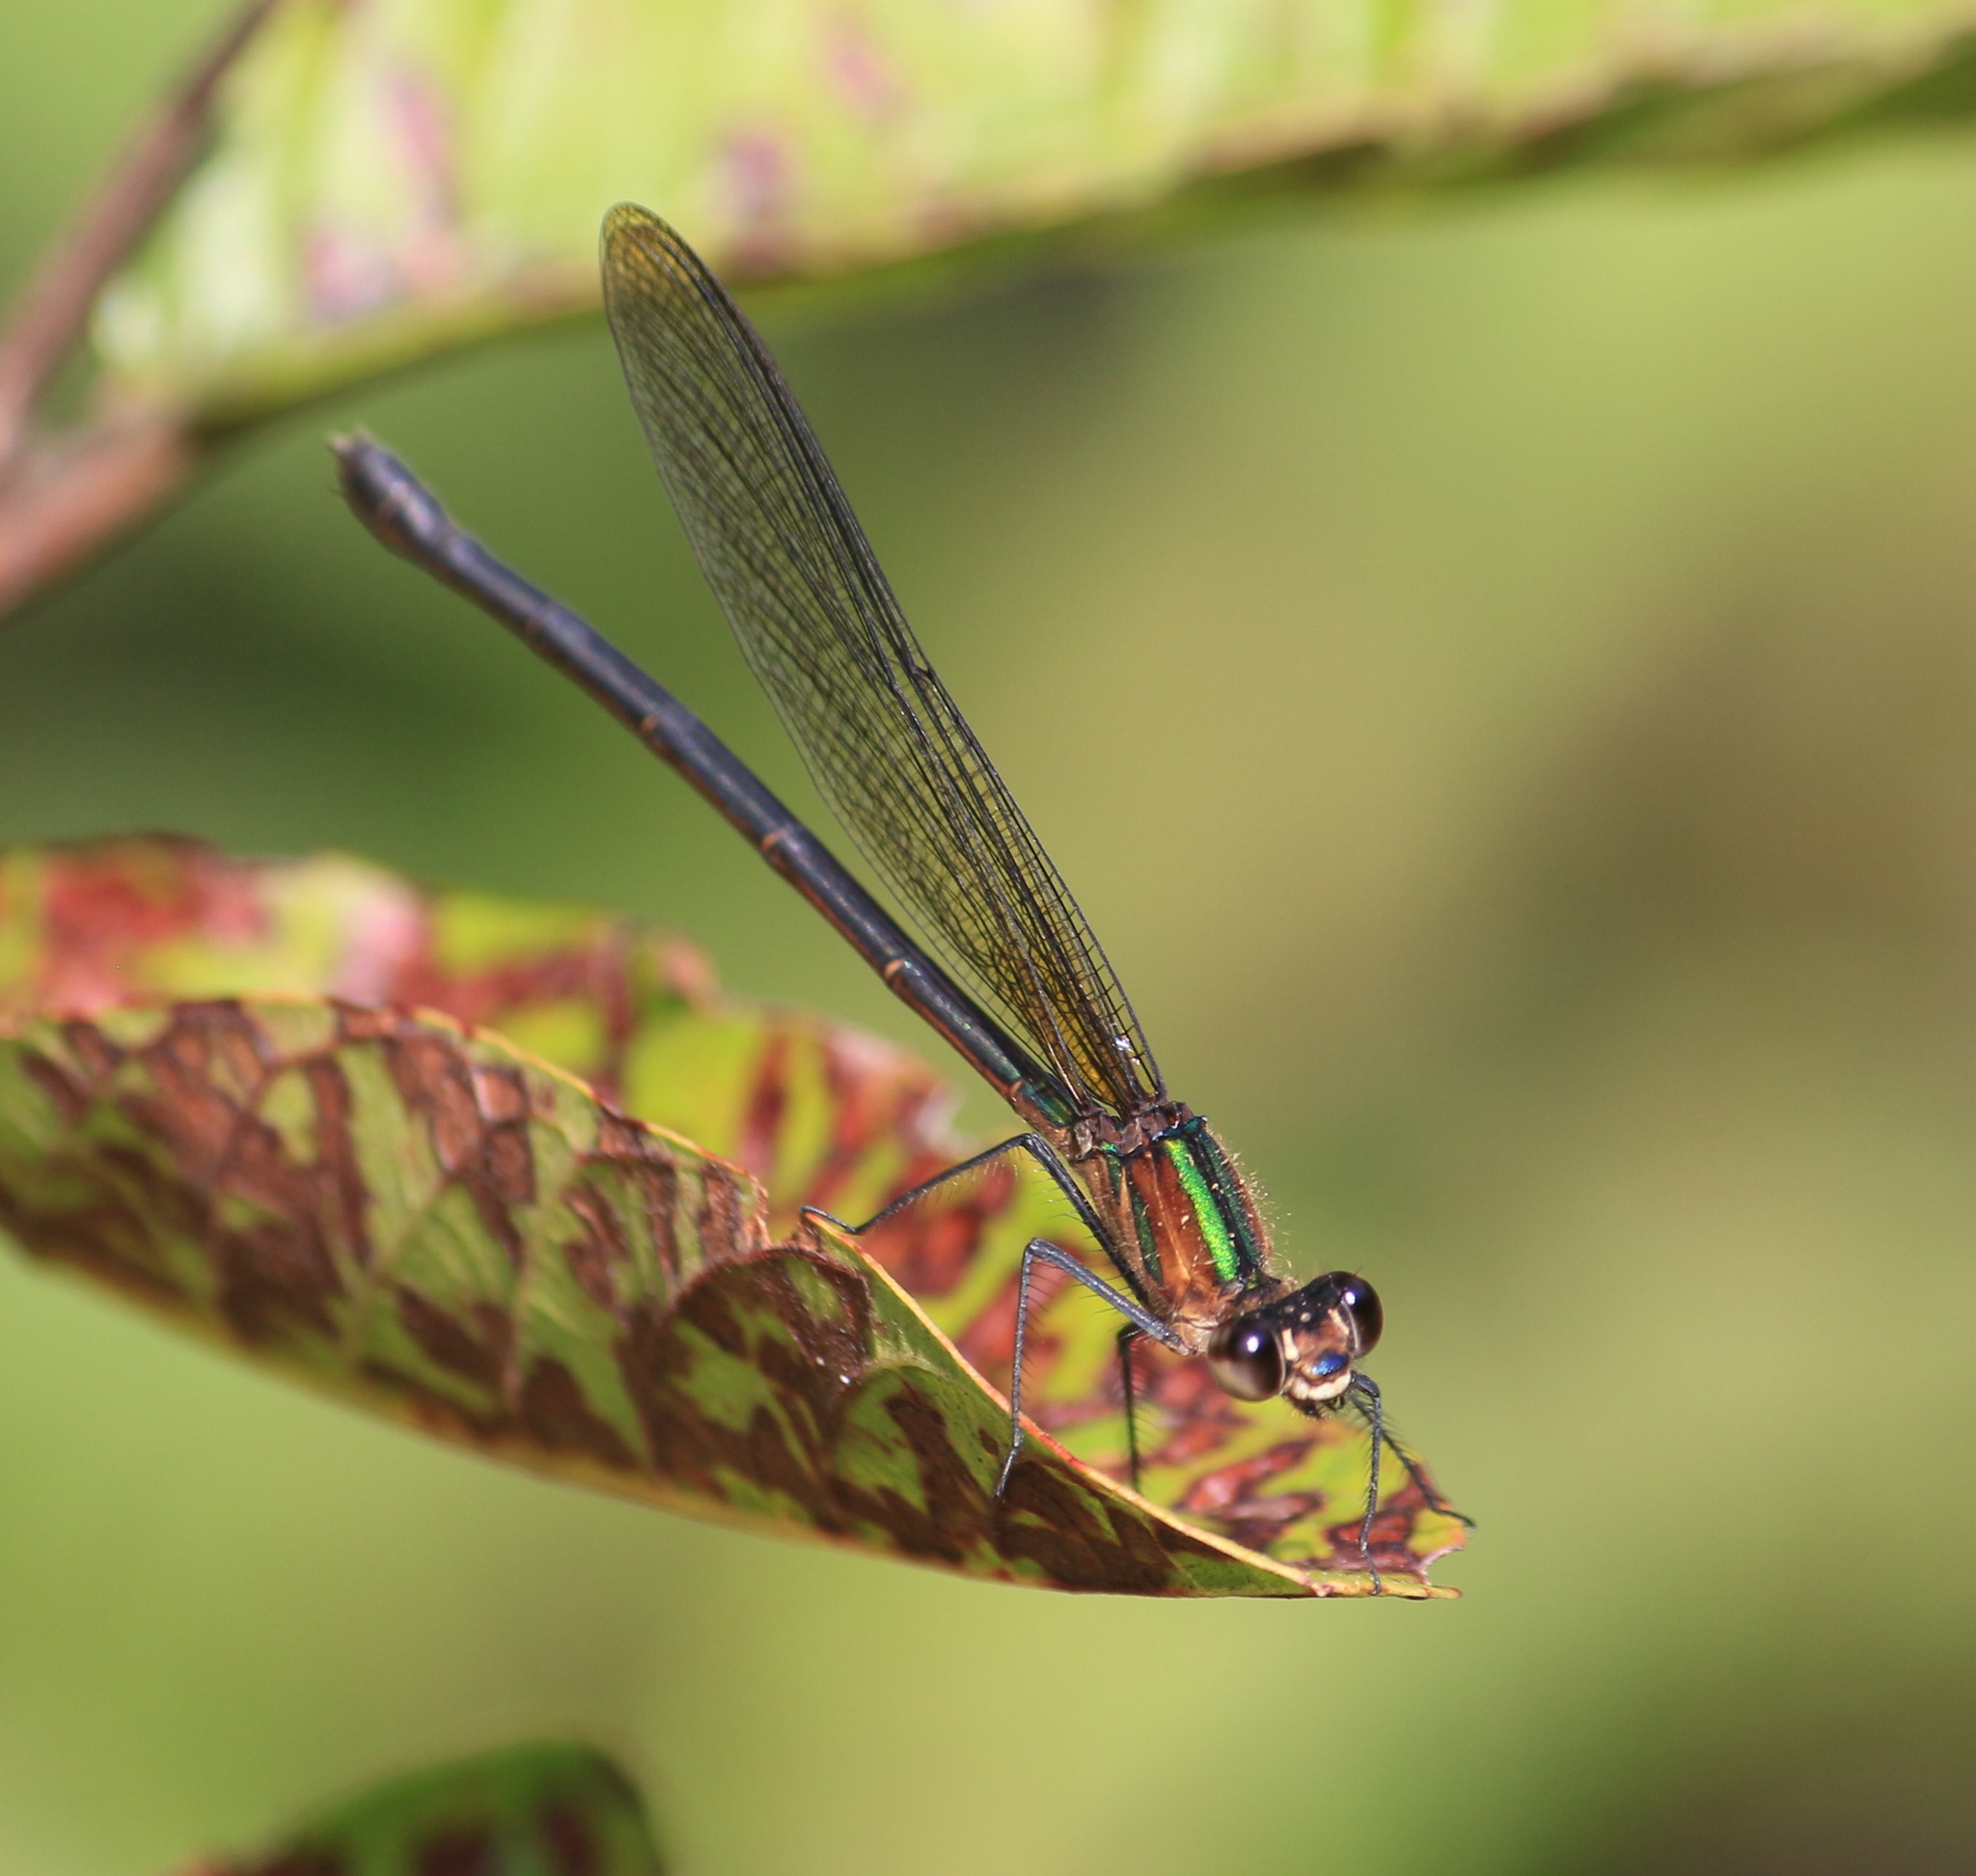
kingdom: Animalia
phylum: Arthropoda
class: Insecta
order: Odonata
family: Calopterygidae
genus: Hetaerina
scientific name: Hetaerina cruentata
